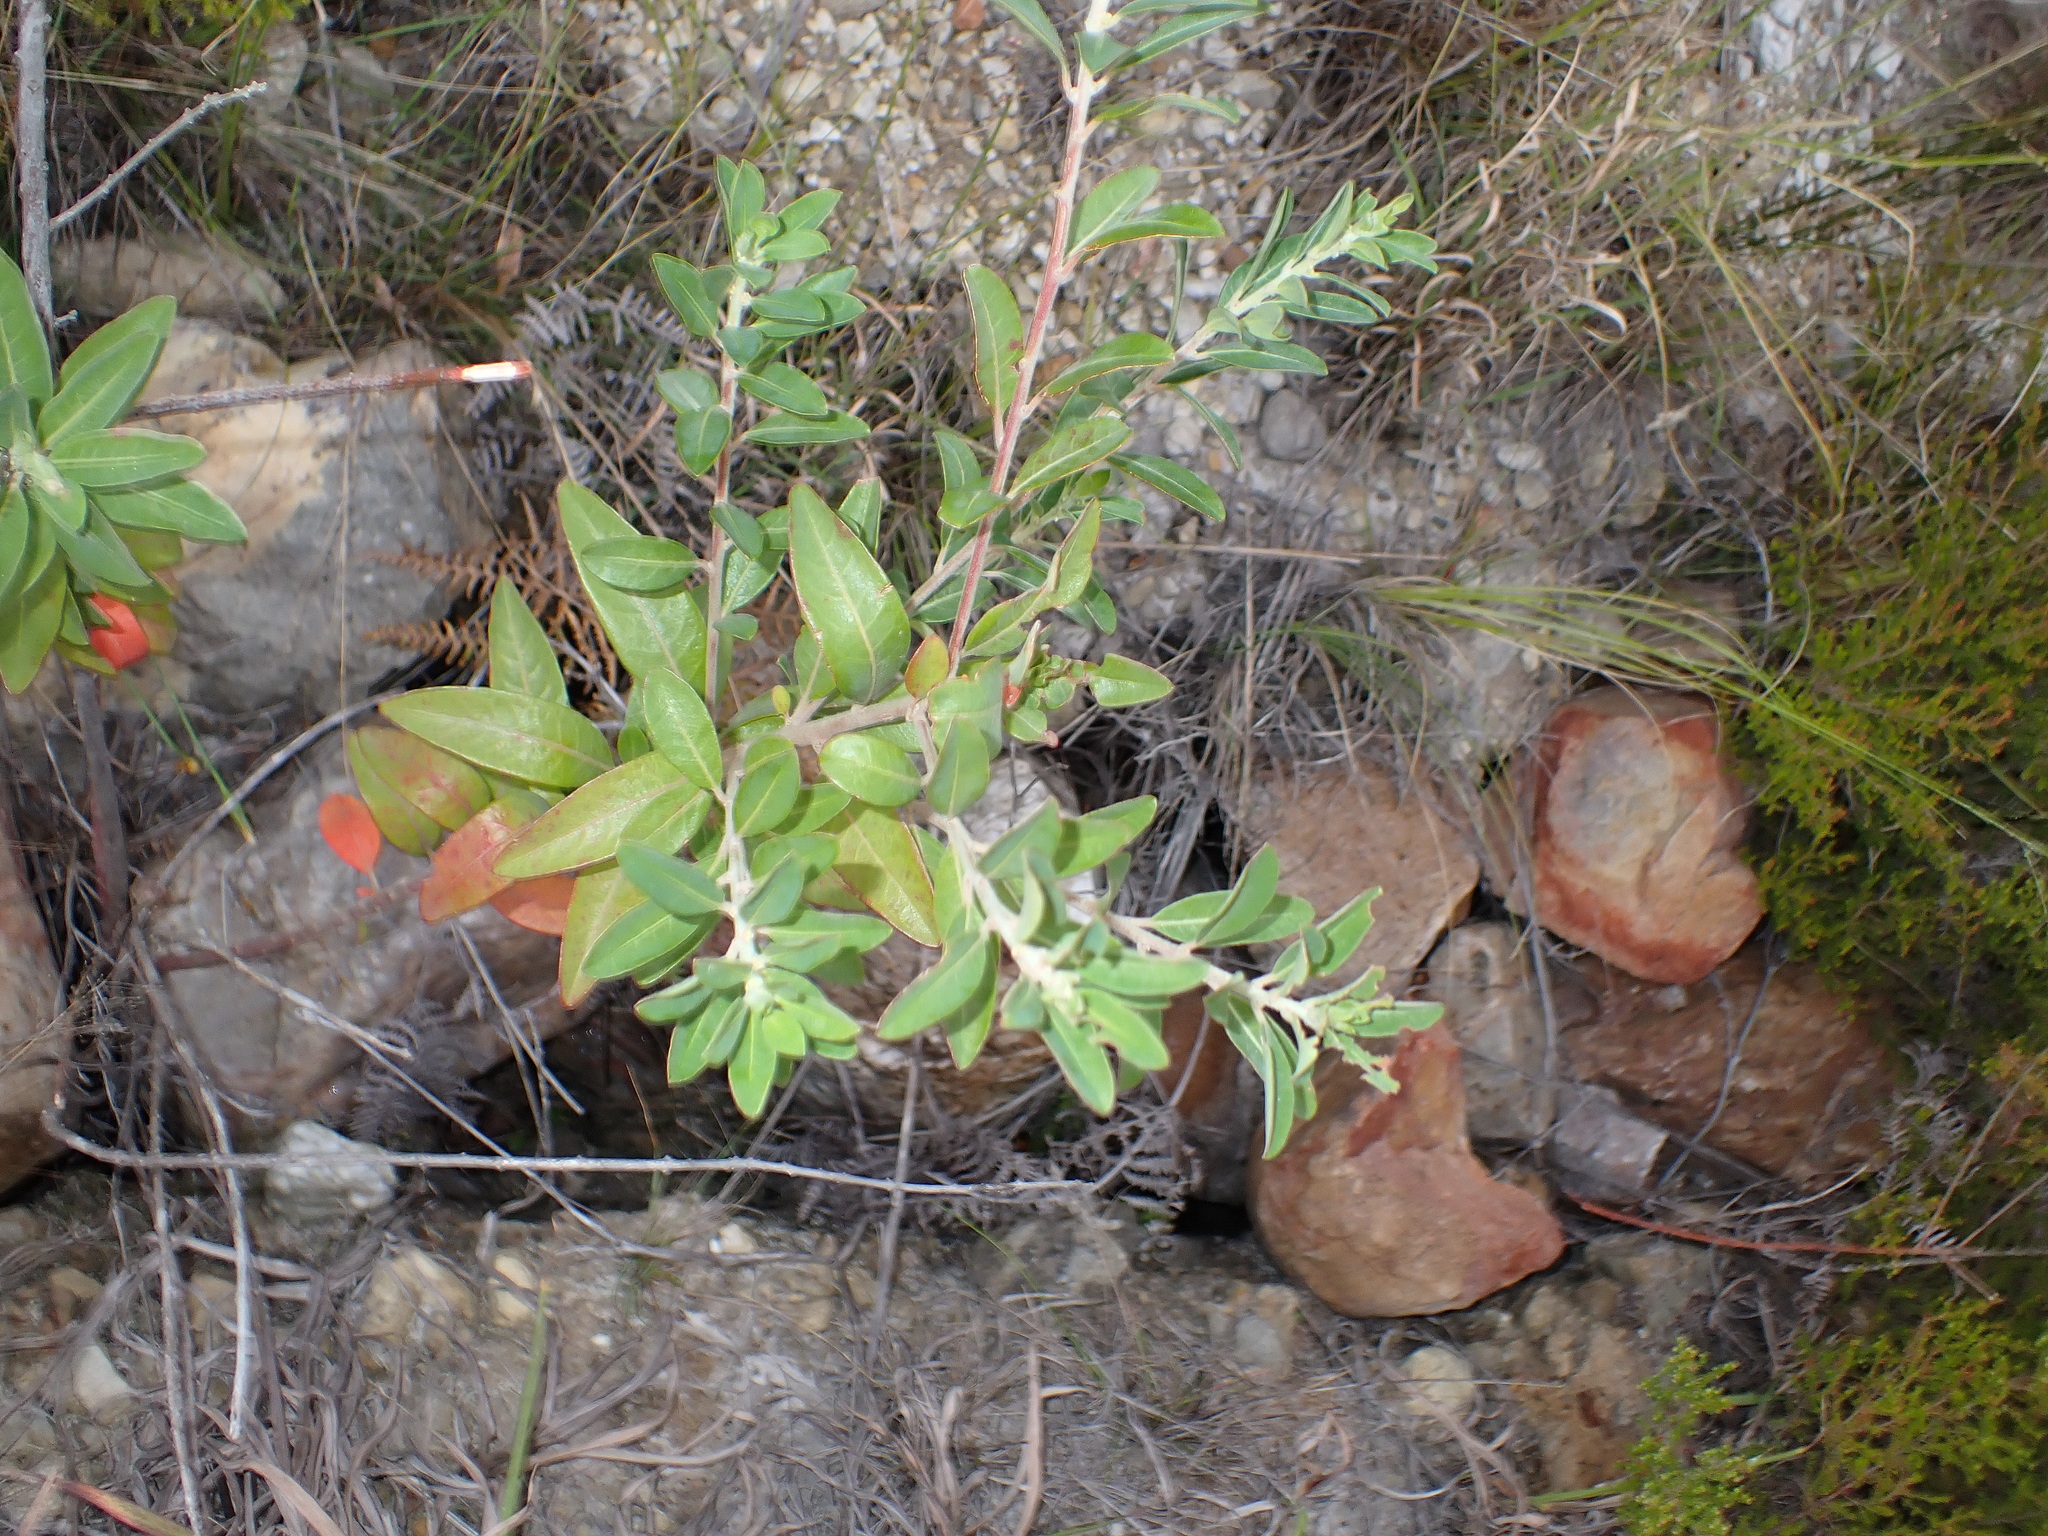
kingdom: Plantae
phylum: Tracheophyta
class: Magnoliopsida
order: Malpighiales
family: Peraceae
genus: Clutia
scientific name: Clutia daphnoides
